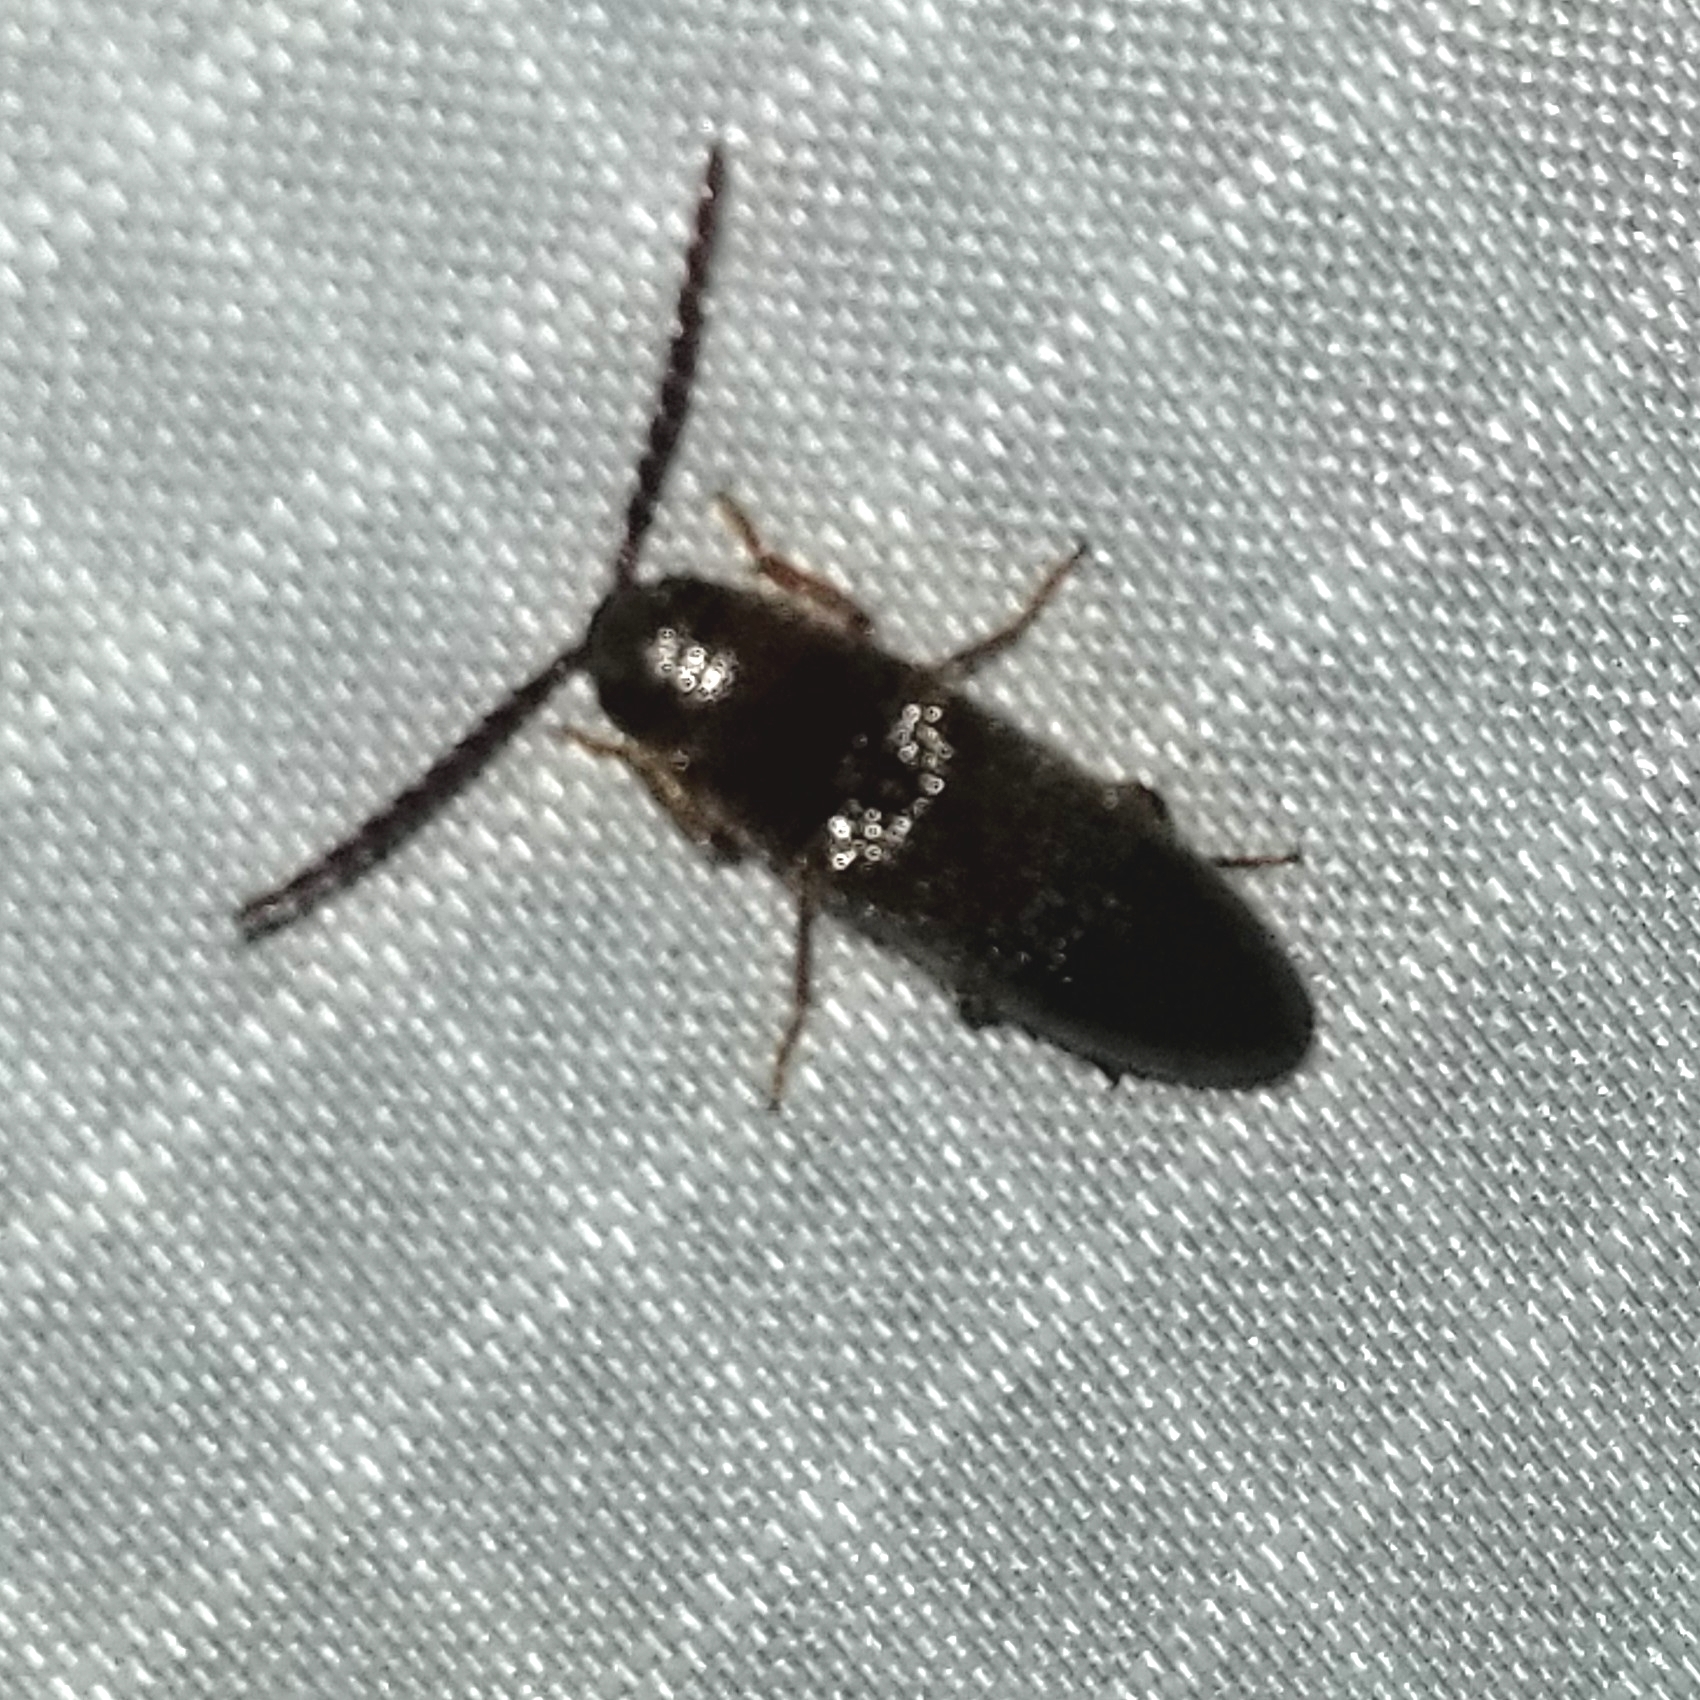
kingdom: Animalia
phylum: Arthropoda
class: Insecta
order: Coleoptera
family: Elateridae
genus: Dipropus
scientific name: Dipropus
